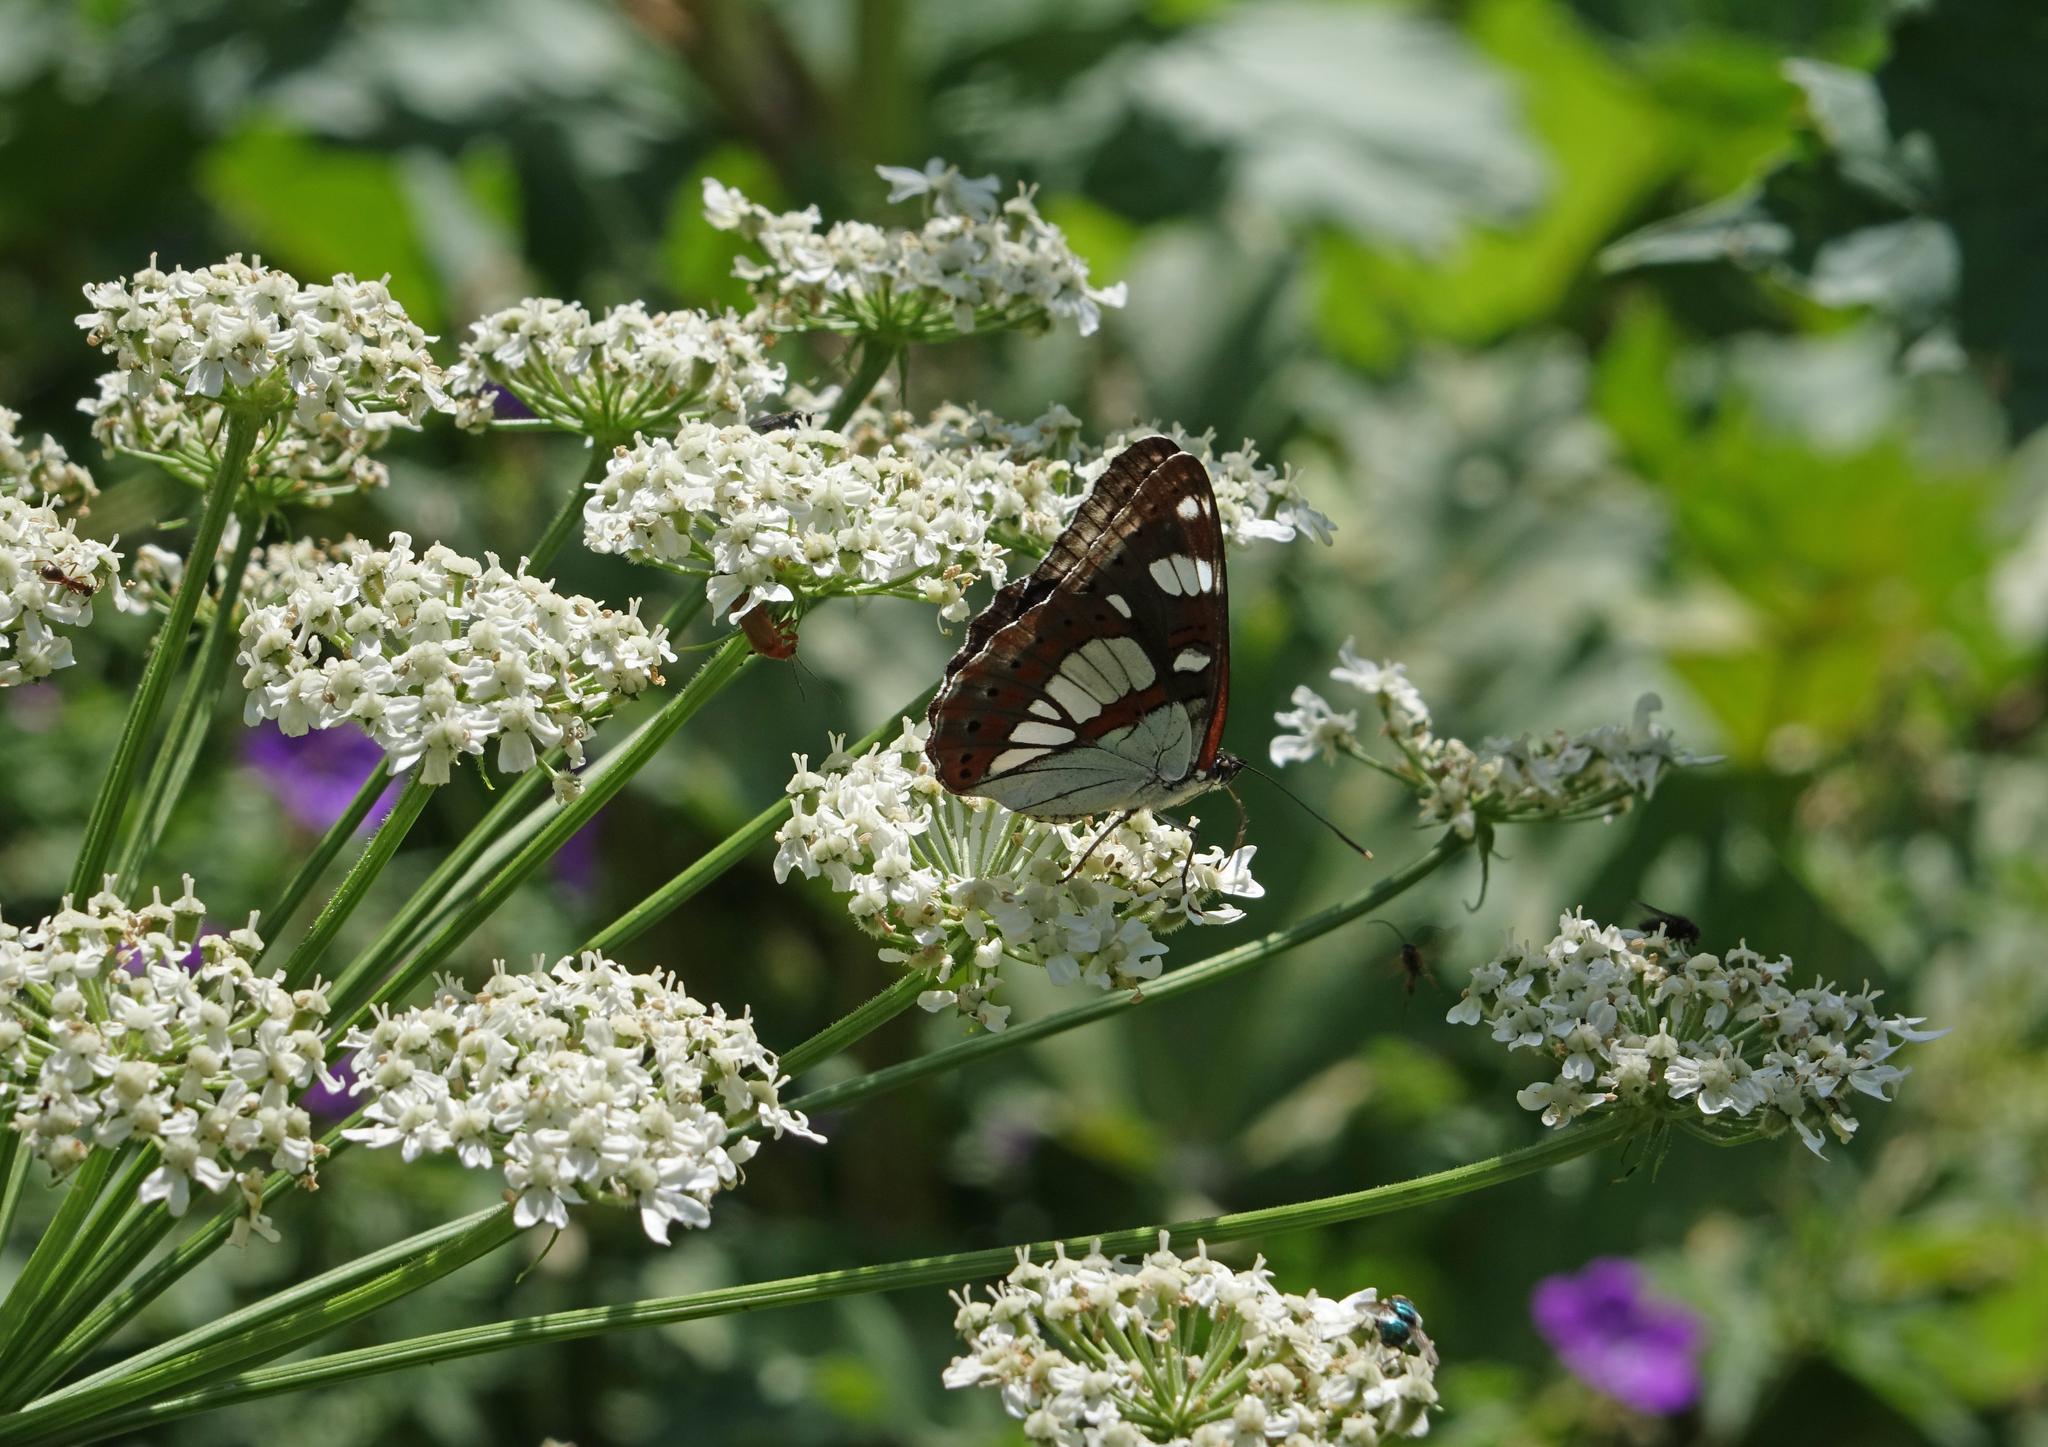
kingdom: Animalia
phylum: Arthropoda
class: Insecta
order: Lepidoptera
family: Nymphalidae
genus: Limenitis
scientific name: Limenitis reducta
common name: Southern white admiral
